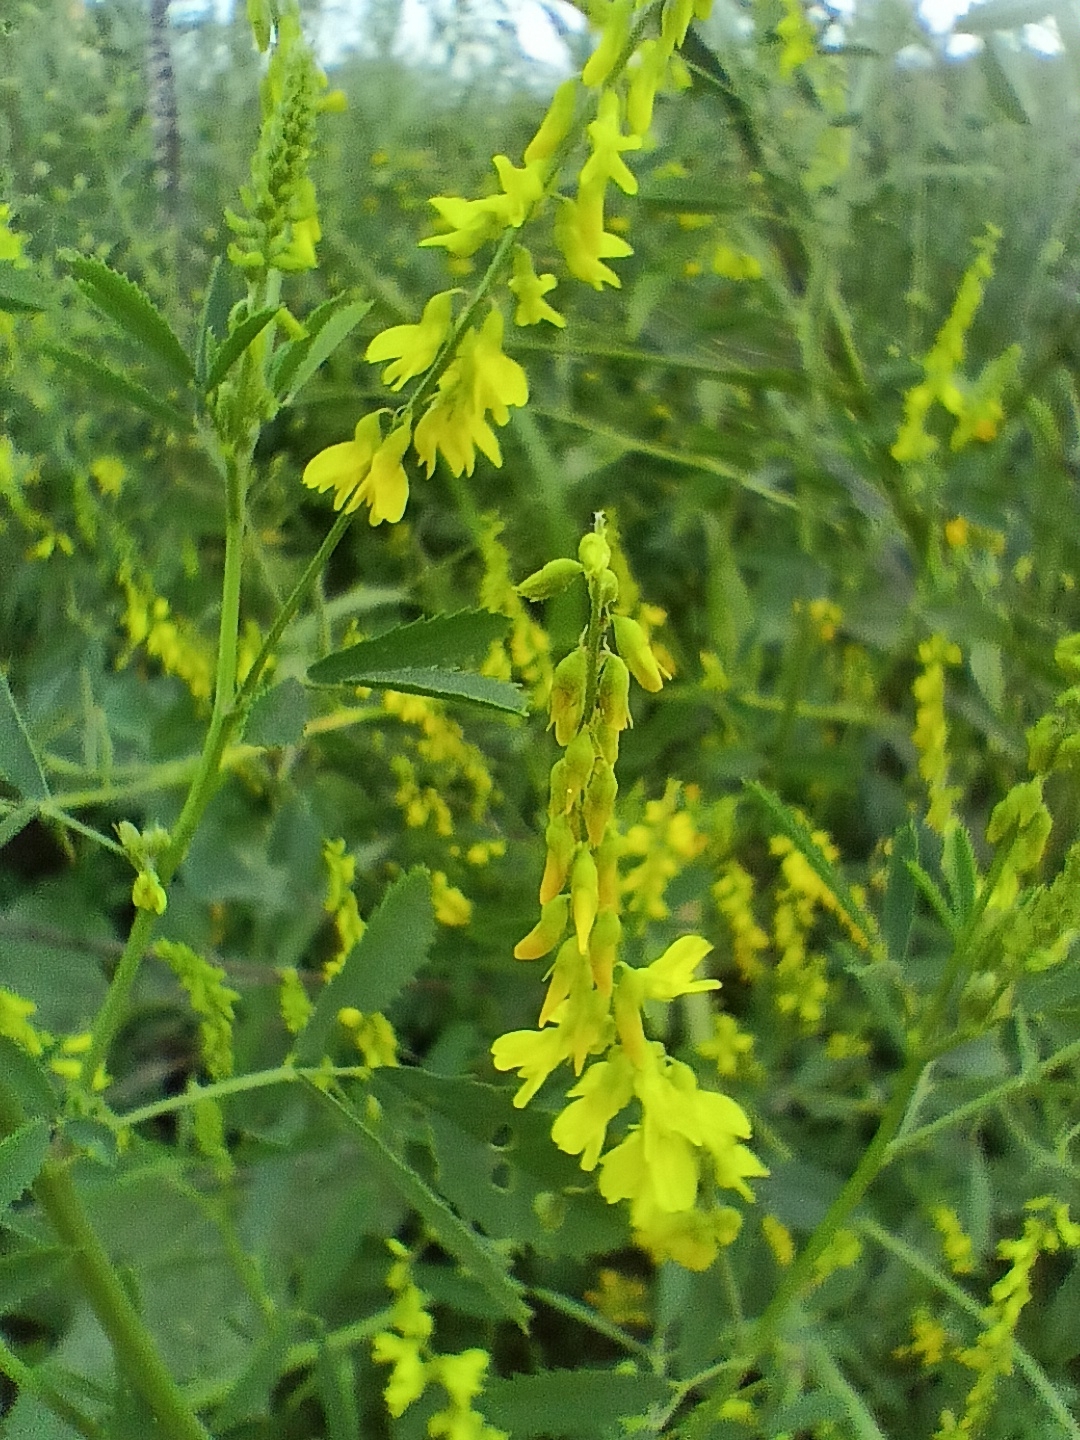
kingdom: Plantae
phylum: Tracheophyta
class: Magnoliopsida
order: Fabales
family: Fabaceae
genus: Melilotus
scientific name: Melilotus officinalis
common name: Sweetclover
